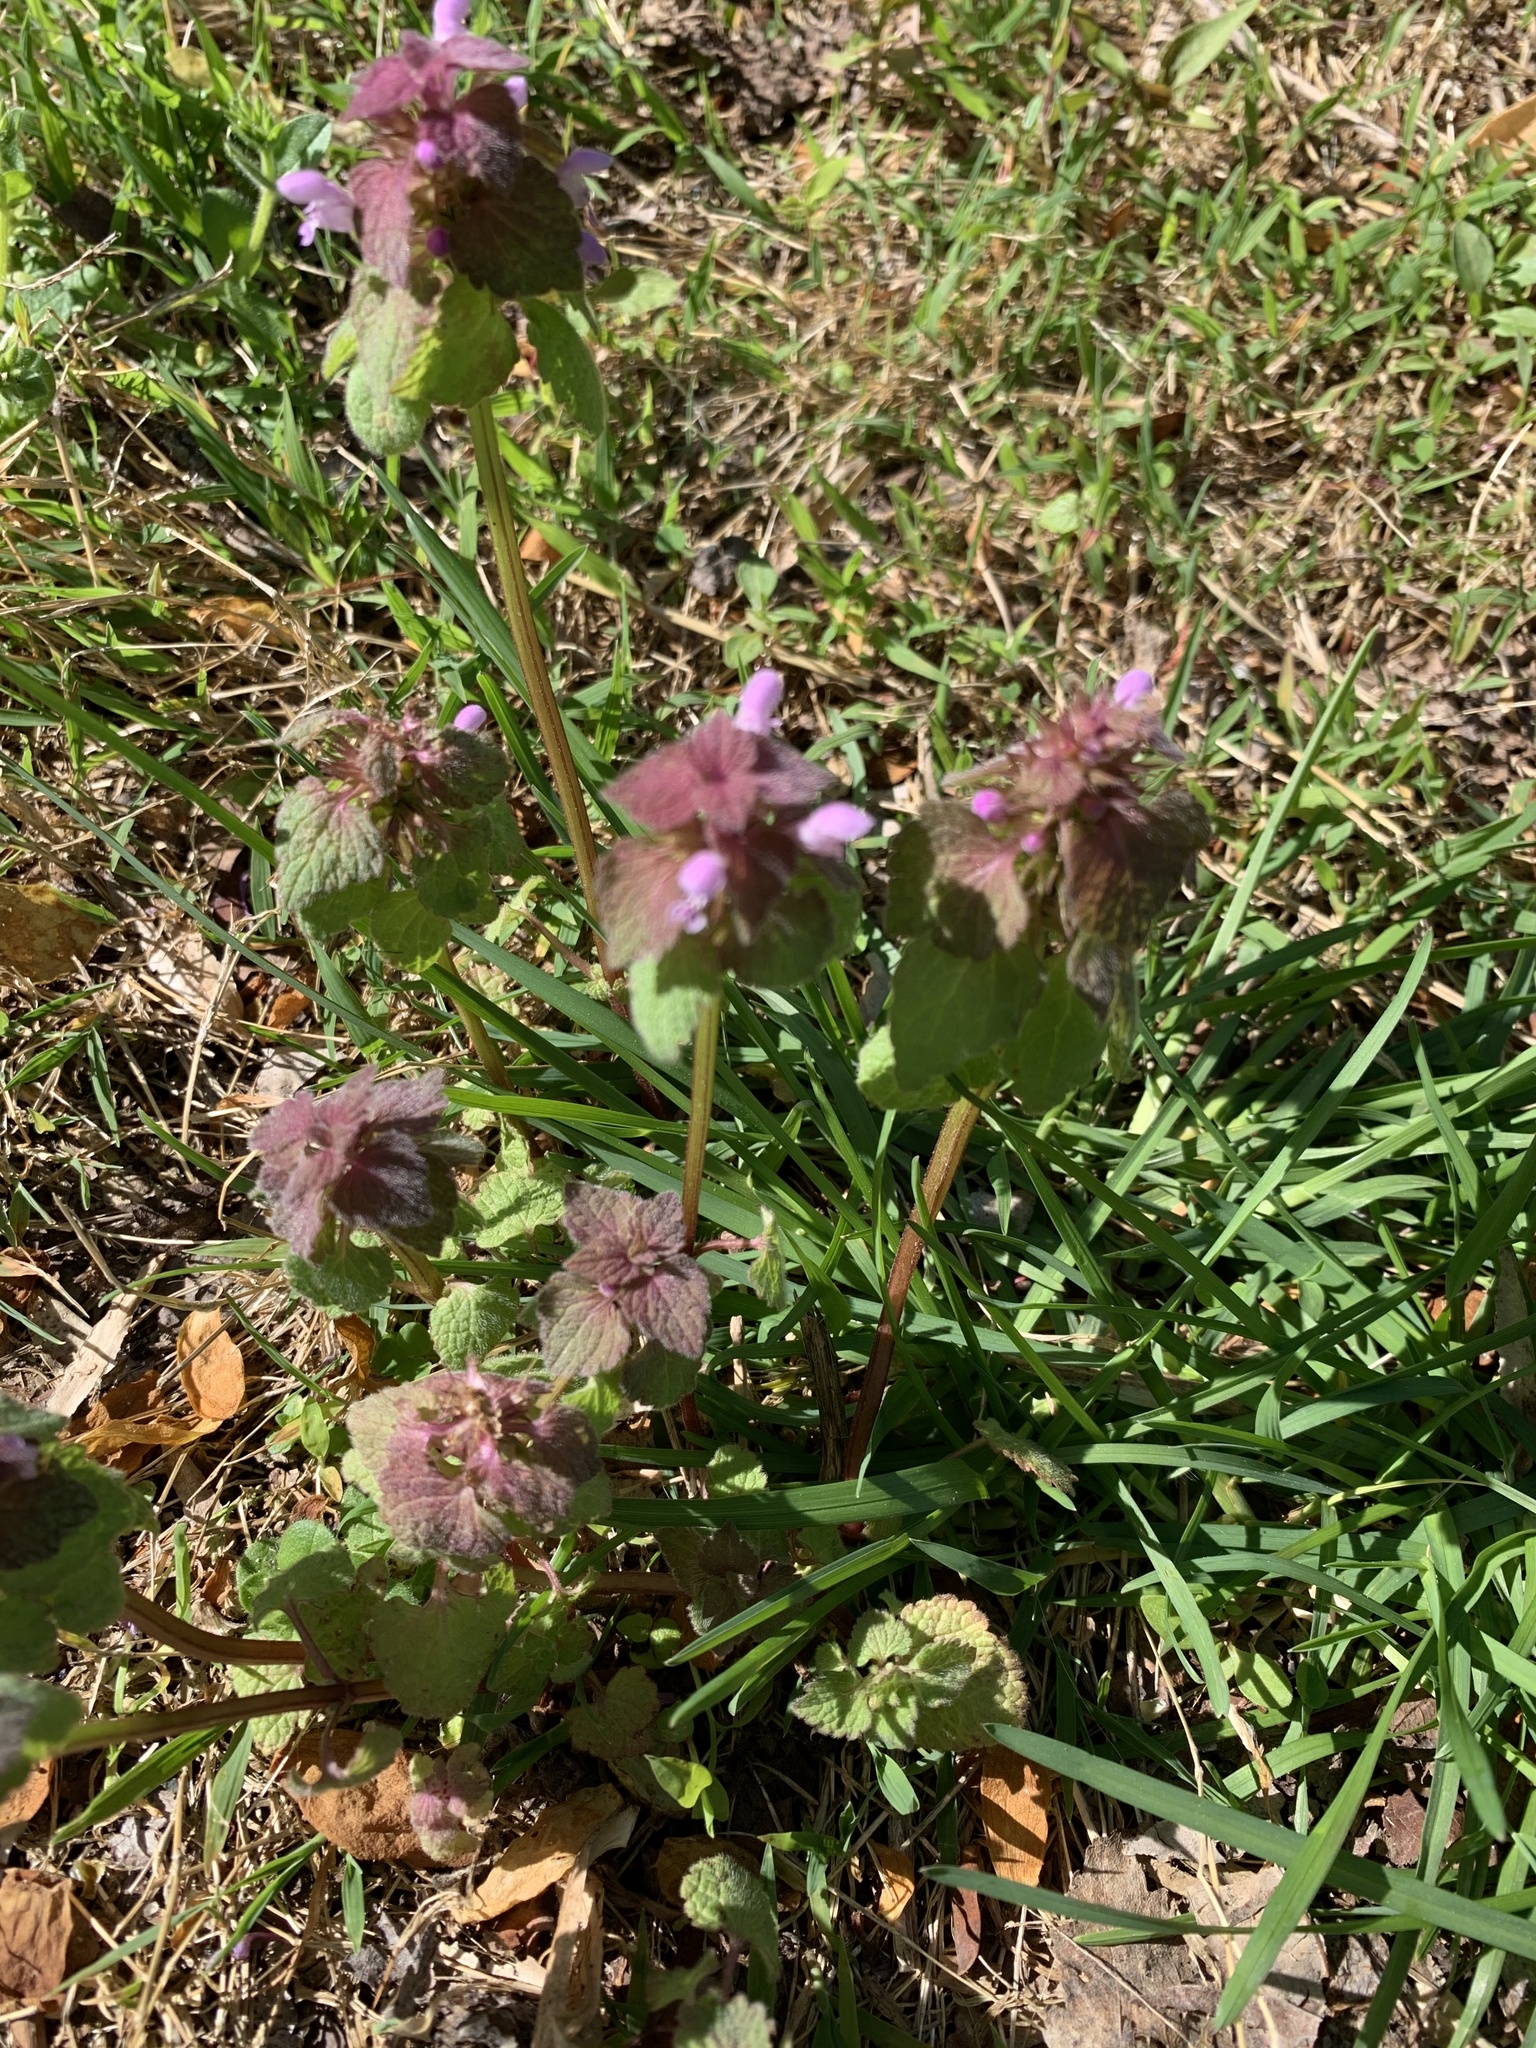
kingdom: Plantae
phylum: Tracheophyta
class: Magnoliopsida
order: Lamiales
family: Lamiaceae
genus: Lamium
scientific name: Lamium purpureum
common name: Red dead-nettle
